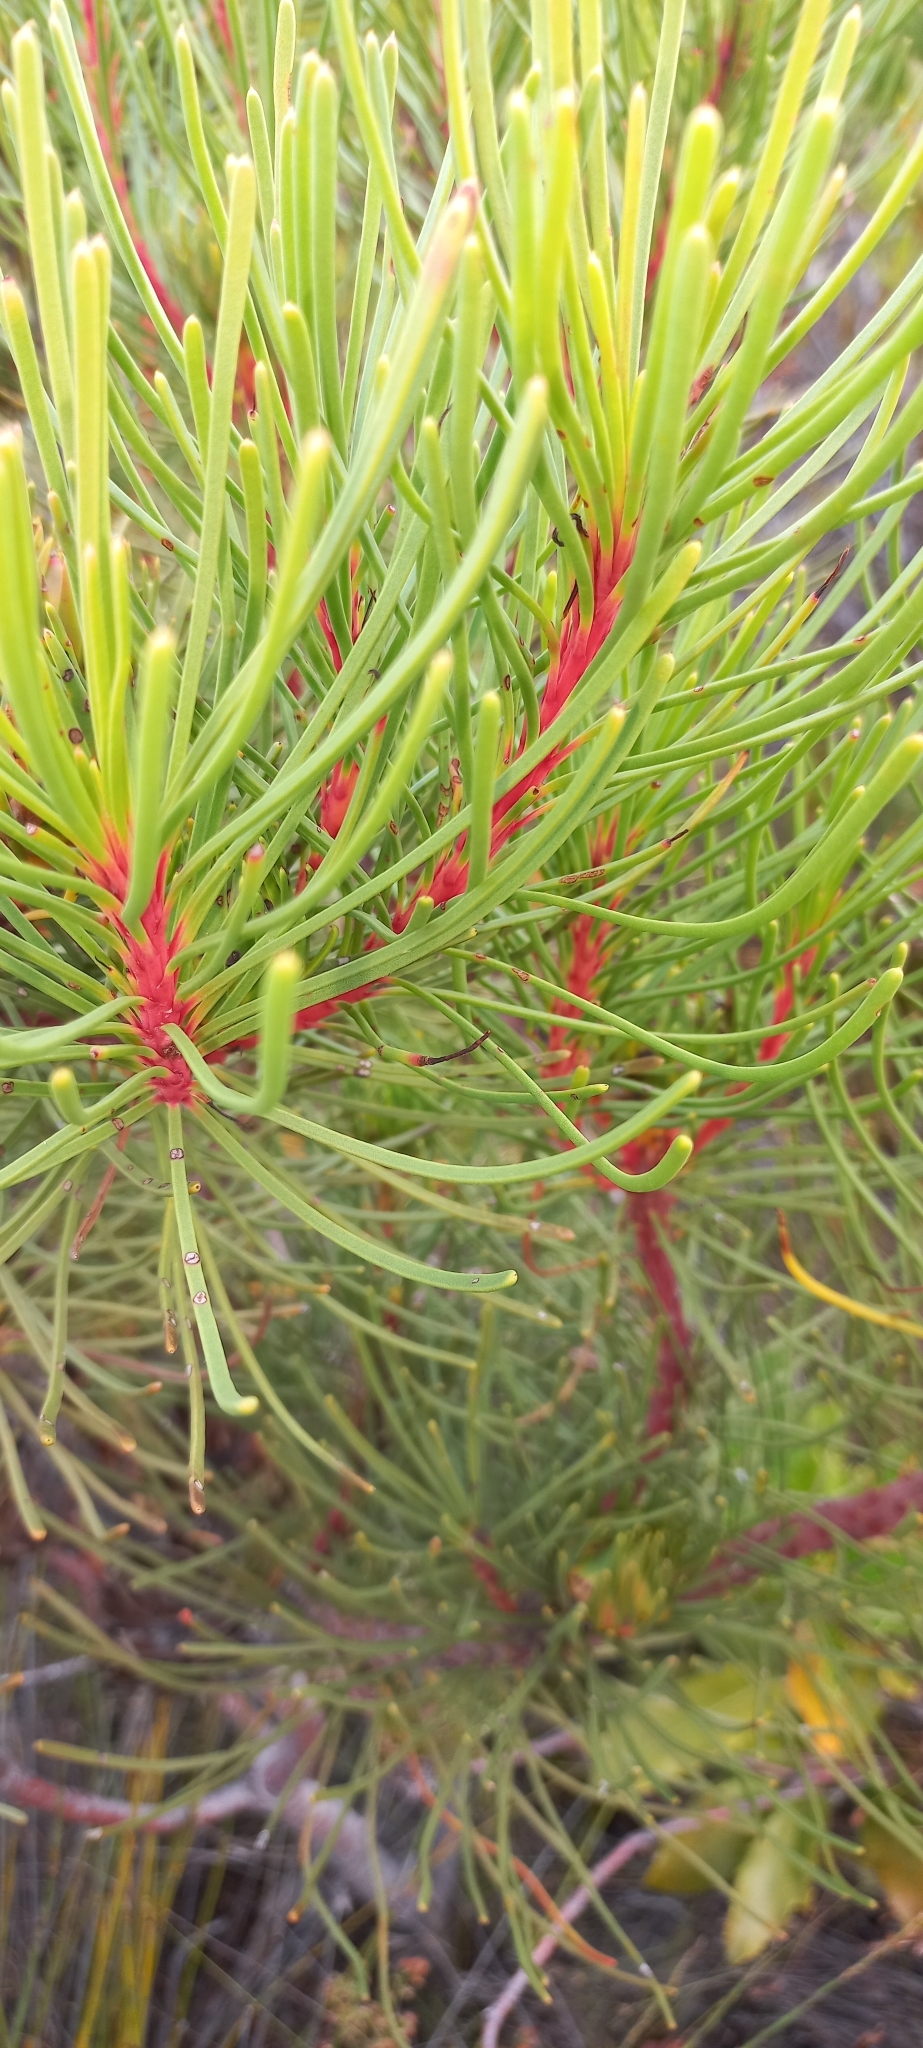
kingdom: Plantae
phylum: Tracheophyta
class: Magnoliopsida
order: Proteales
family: Proteaceae
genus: Aulax
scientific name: Aulax cancellata
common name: Channel-leaf featherbush
